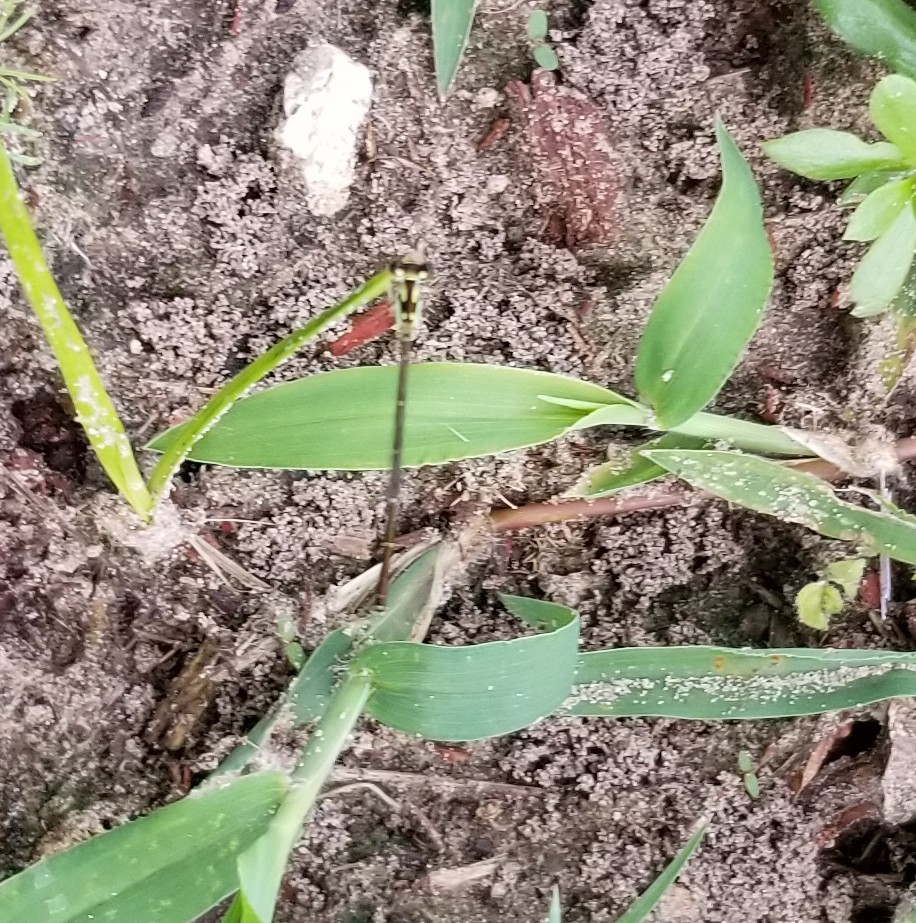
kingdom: Animalia
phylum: Arthropoda
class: Insecta
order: Odonata
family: Coenagrionidae
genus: Ischnura
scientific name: Ischnura posita
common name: Fragile forktail
